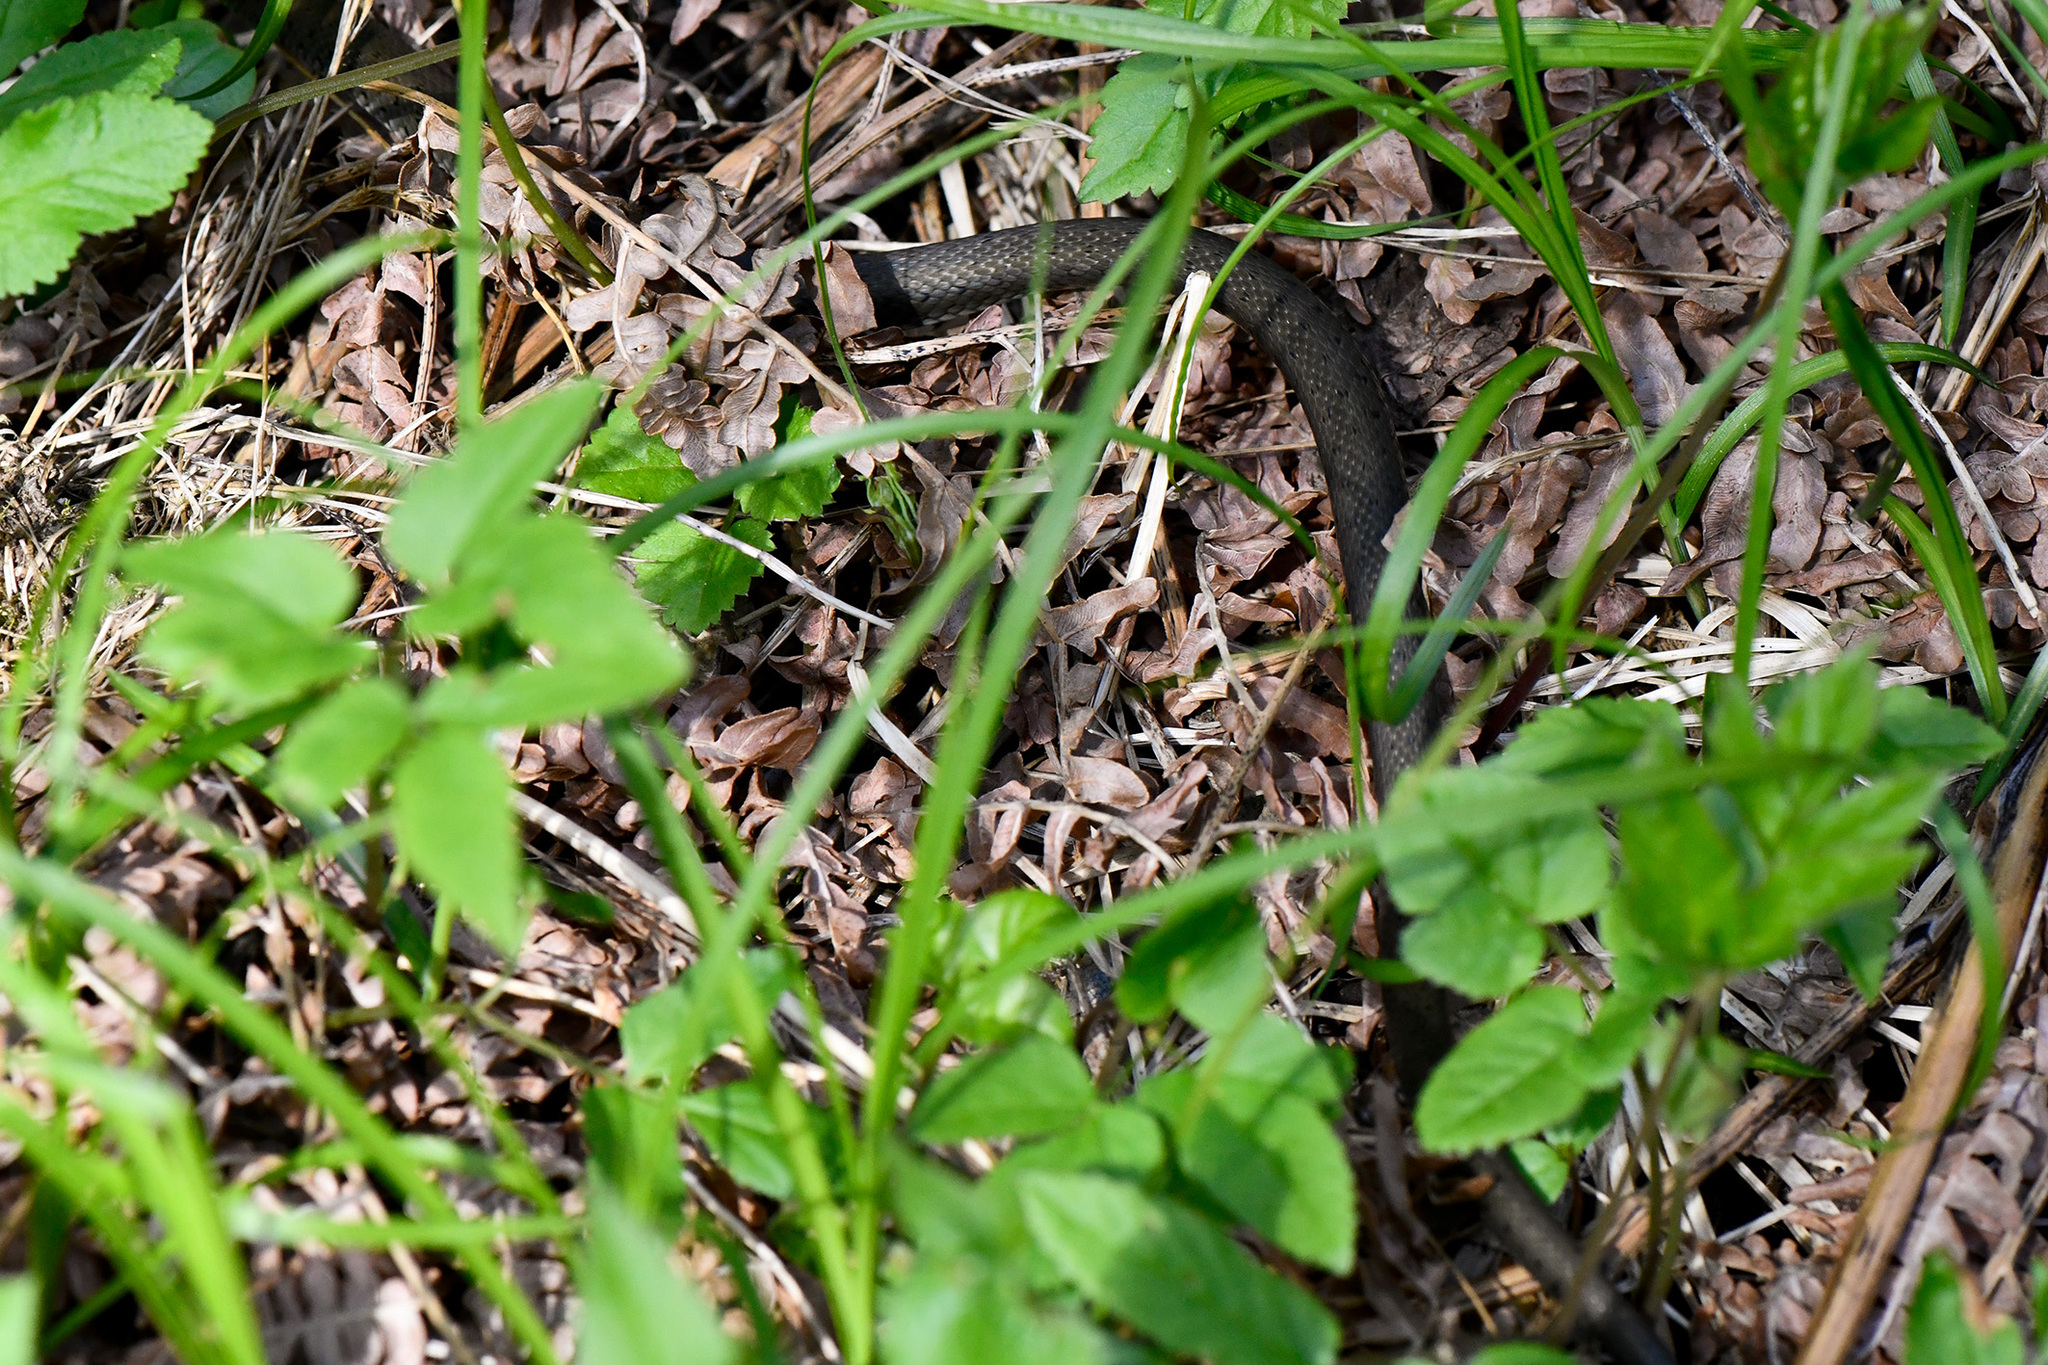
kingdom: Animalia
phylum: Chordata
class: Squamata
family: Colubridae
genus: Natrix
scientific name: Natrix natrix
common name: Grass snake
